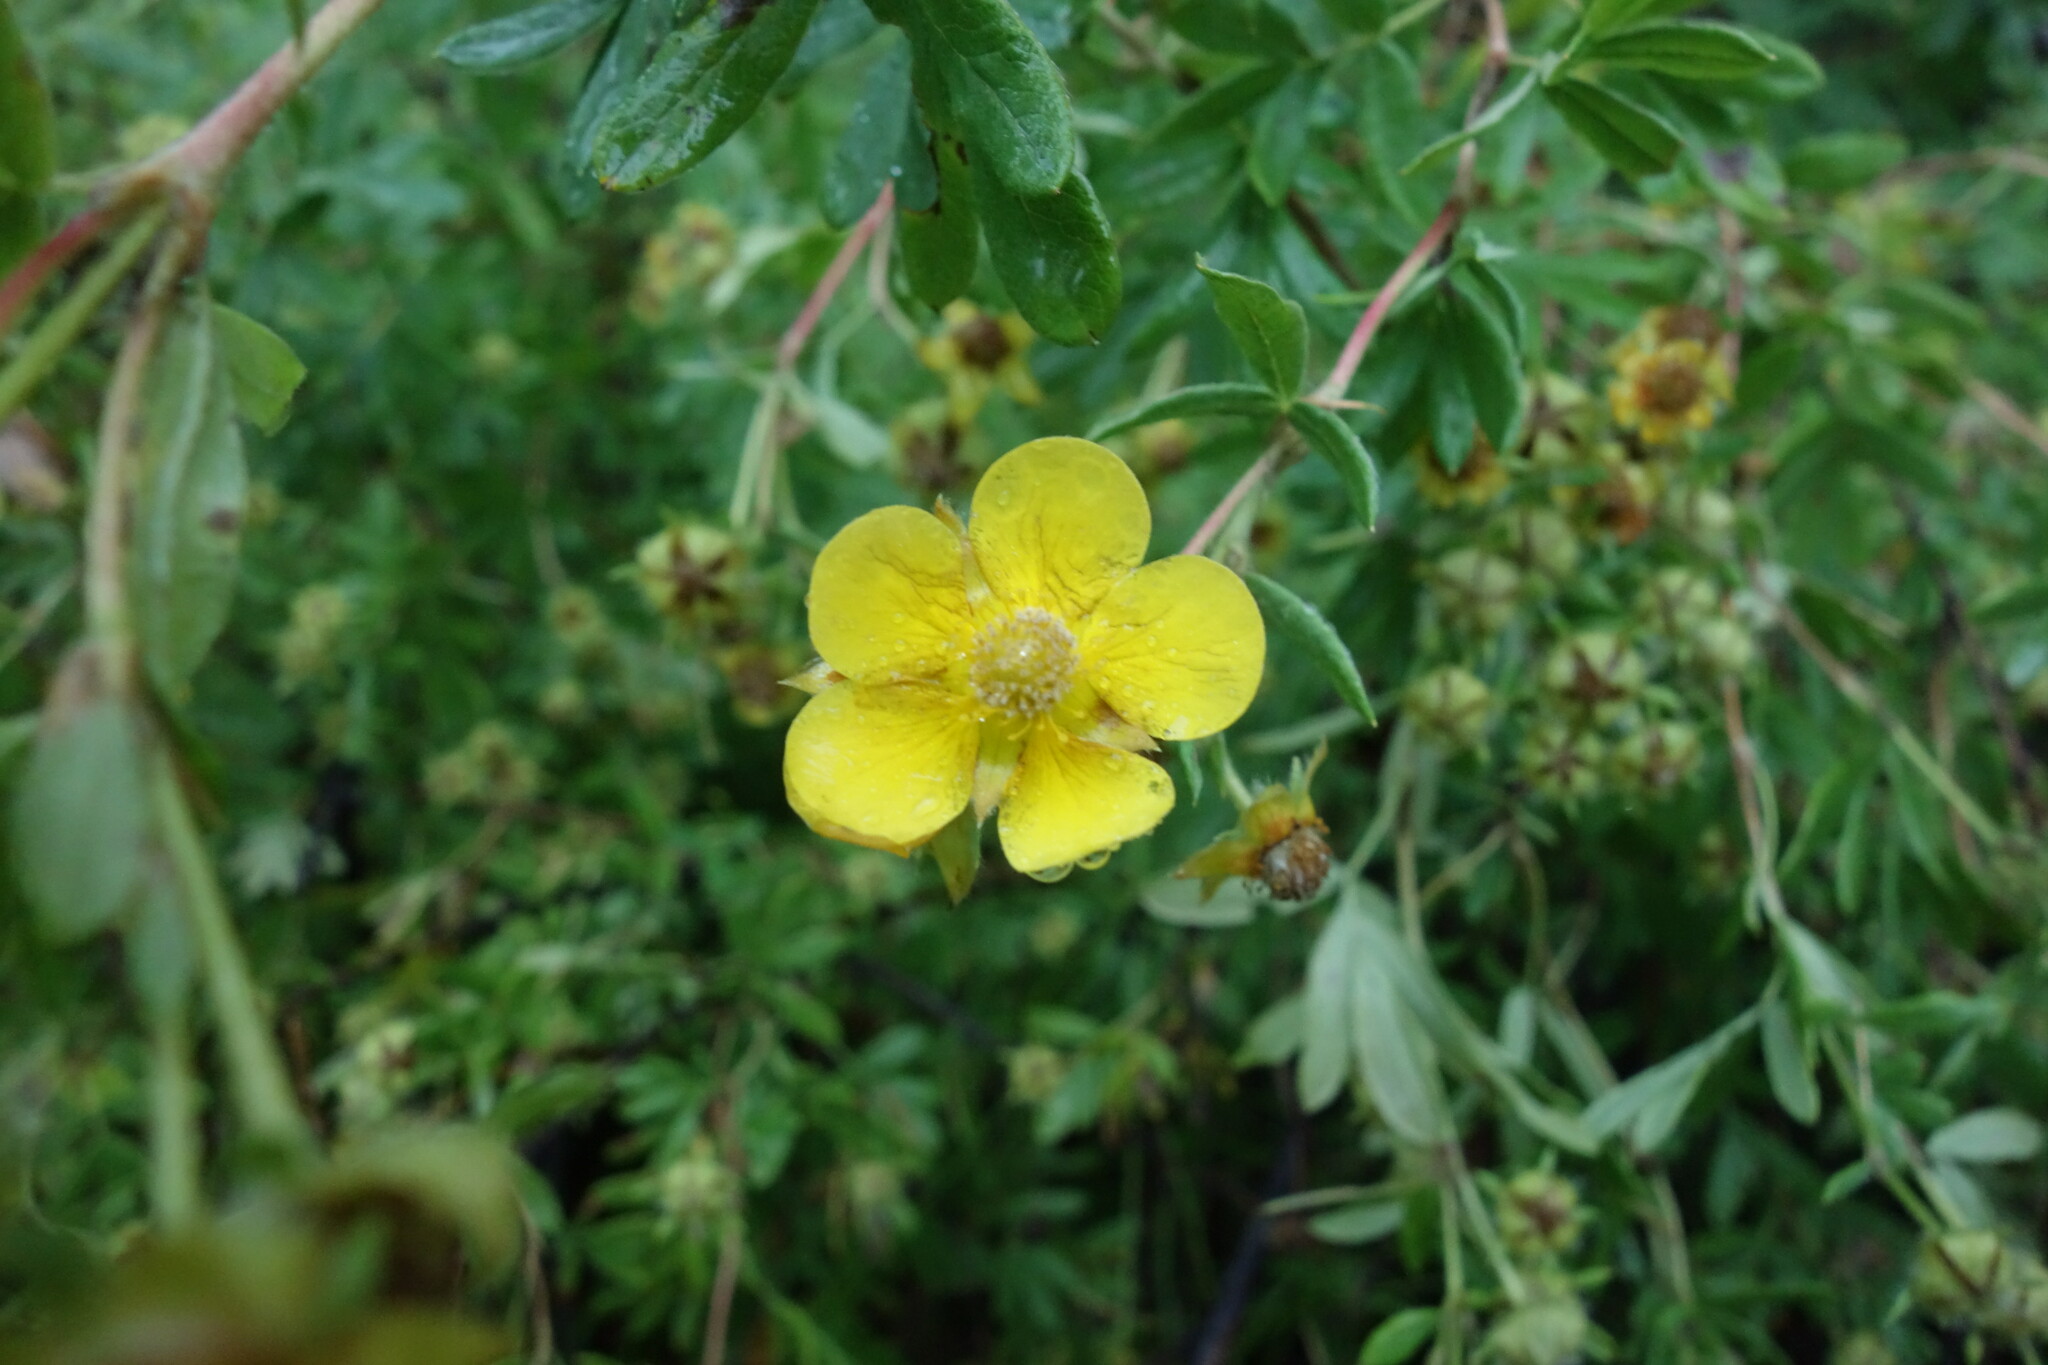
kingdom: Plantae
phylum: Tracheophyta
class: Magnoliopsida
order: Rosales
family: Rosaceae
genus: Dasiphora
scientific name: Dasiphora fruticosa
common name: Shrubby cinquefoil
